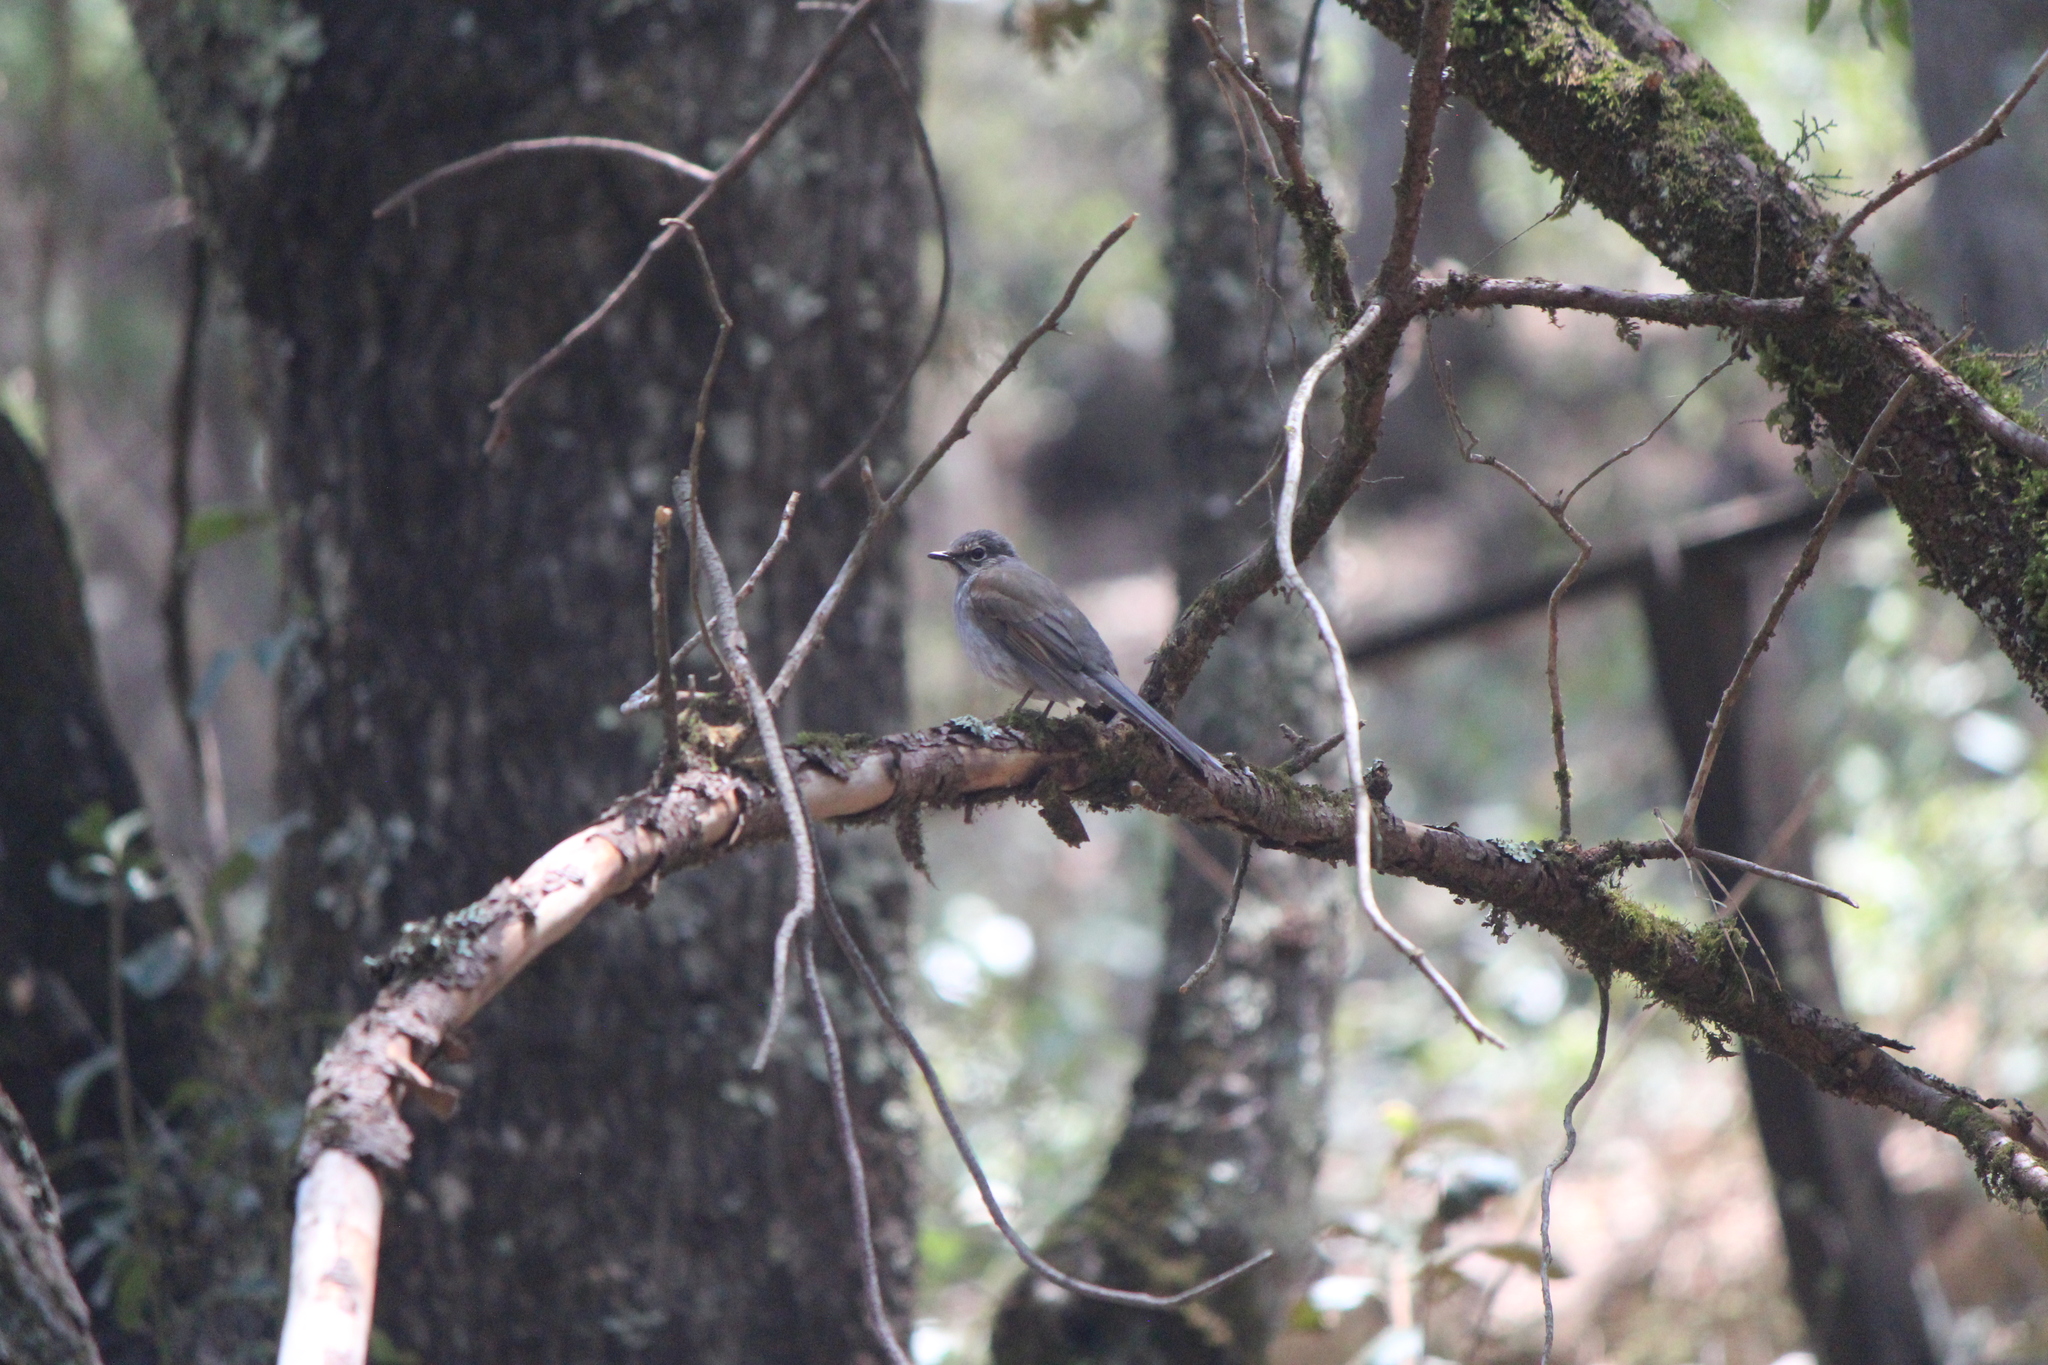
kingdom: Animalia
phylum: Chordata
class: Aves
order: Passeriformes
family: Turdidae
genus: Myadestes
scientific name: Myadestes occidentalis
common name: Brown-backed solitaire
